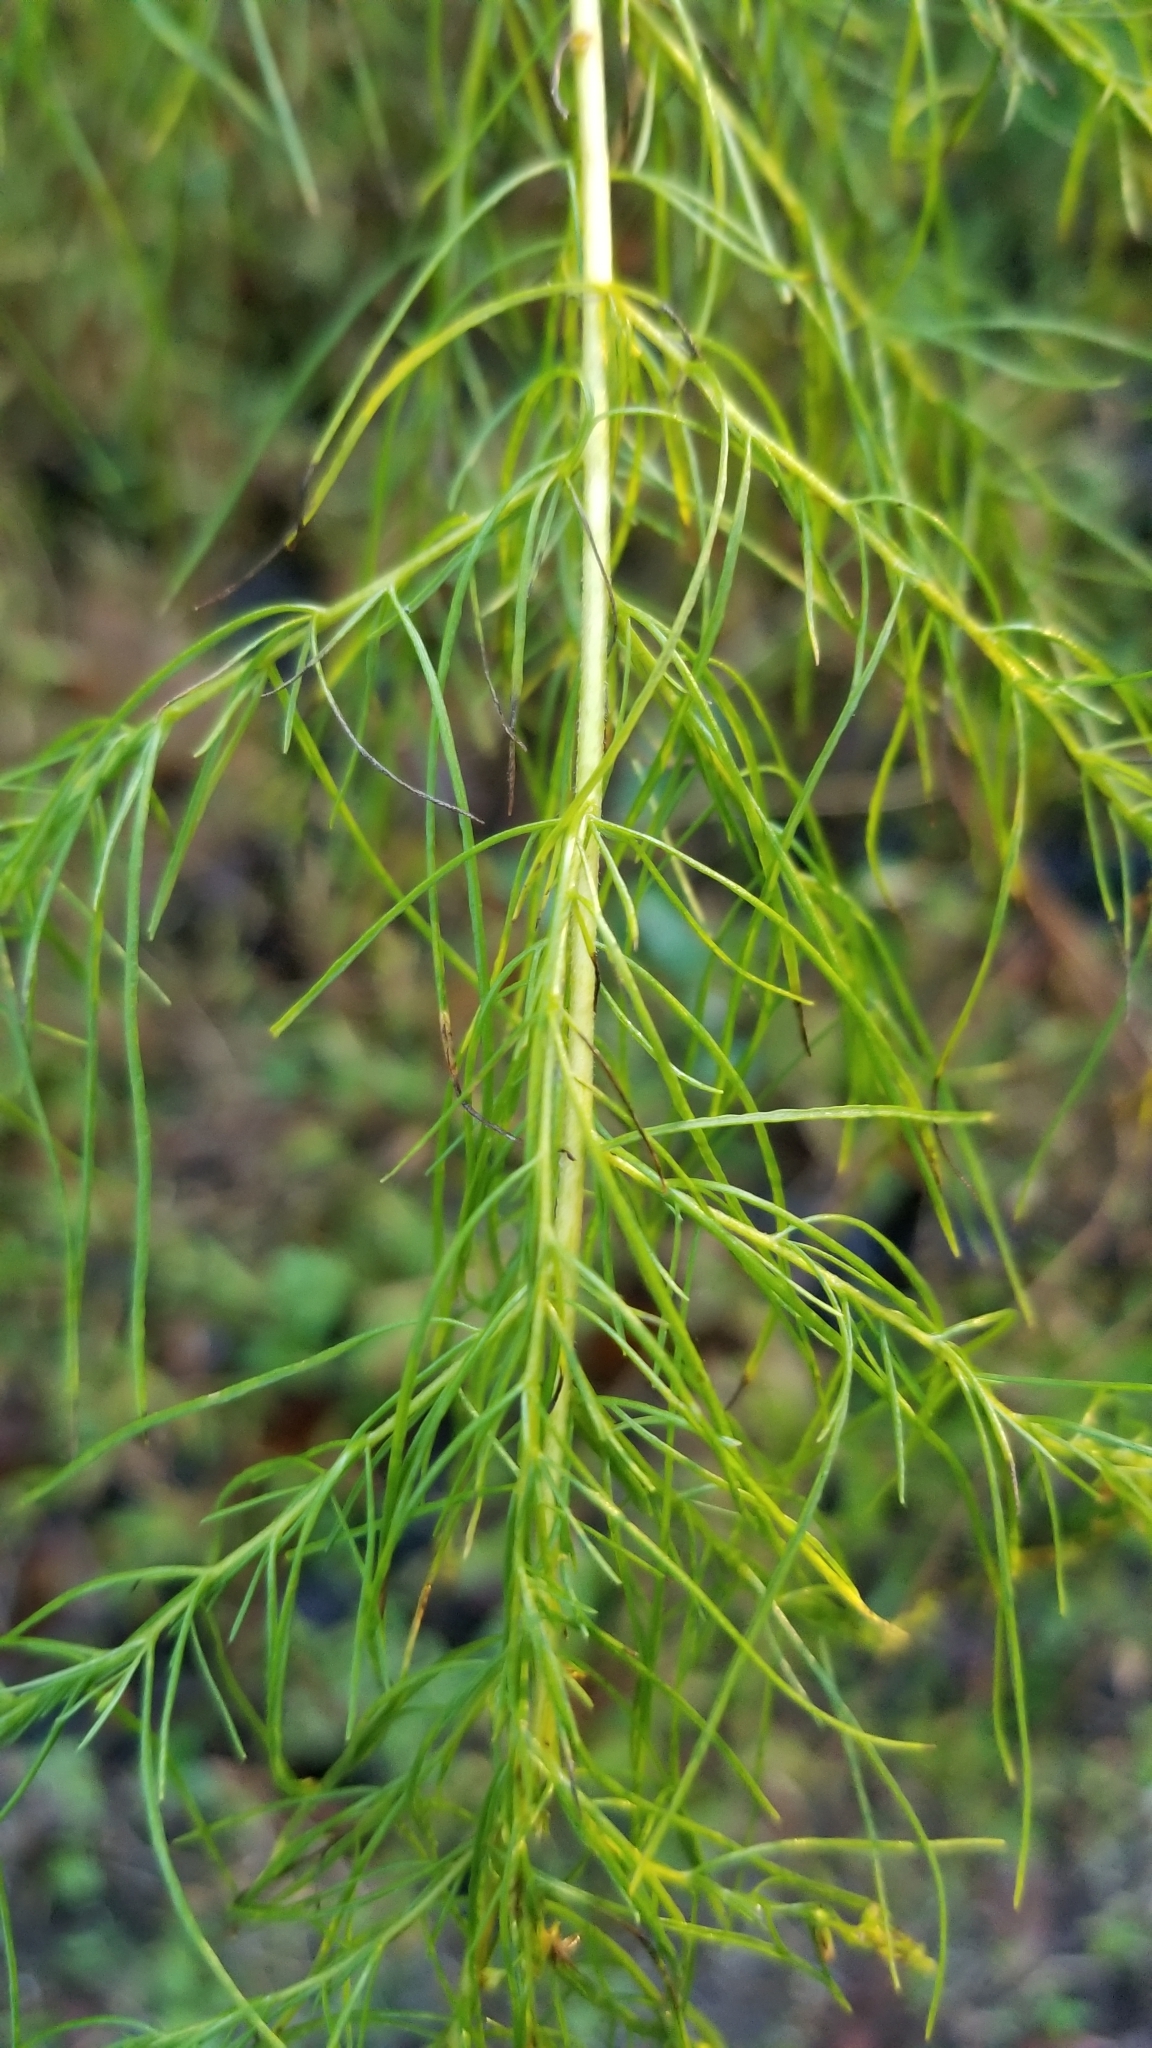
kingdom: Plantae
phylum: Tracheophyta
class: Magnoliopsida
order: Asterales
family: Asteraceae
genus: Eupatorium
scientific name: Eupatorium capillifolium
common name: Dog-fennel
